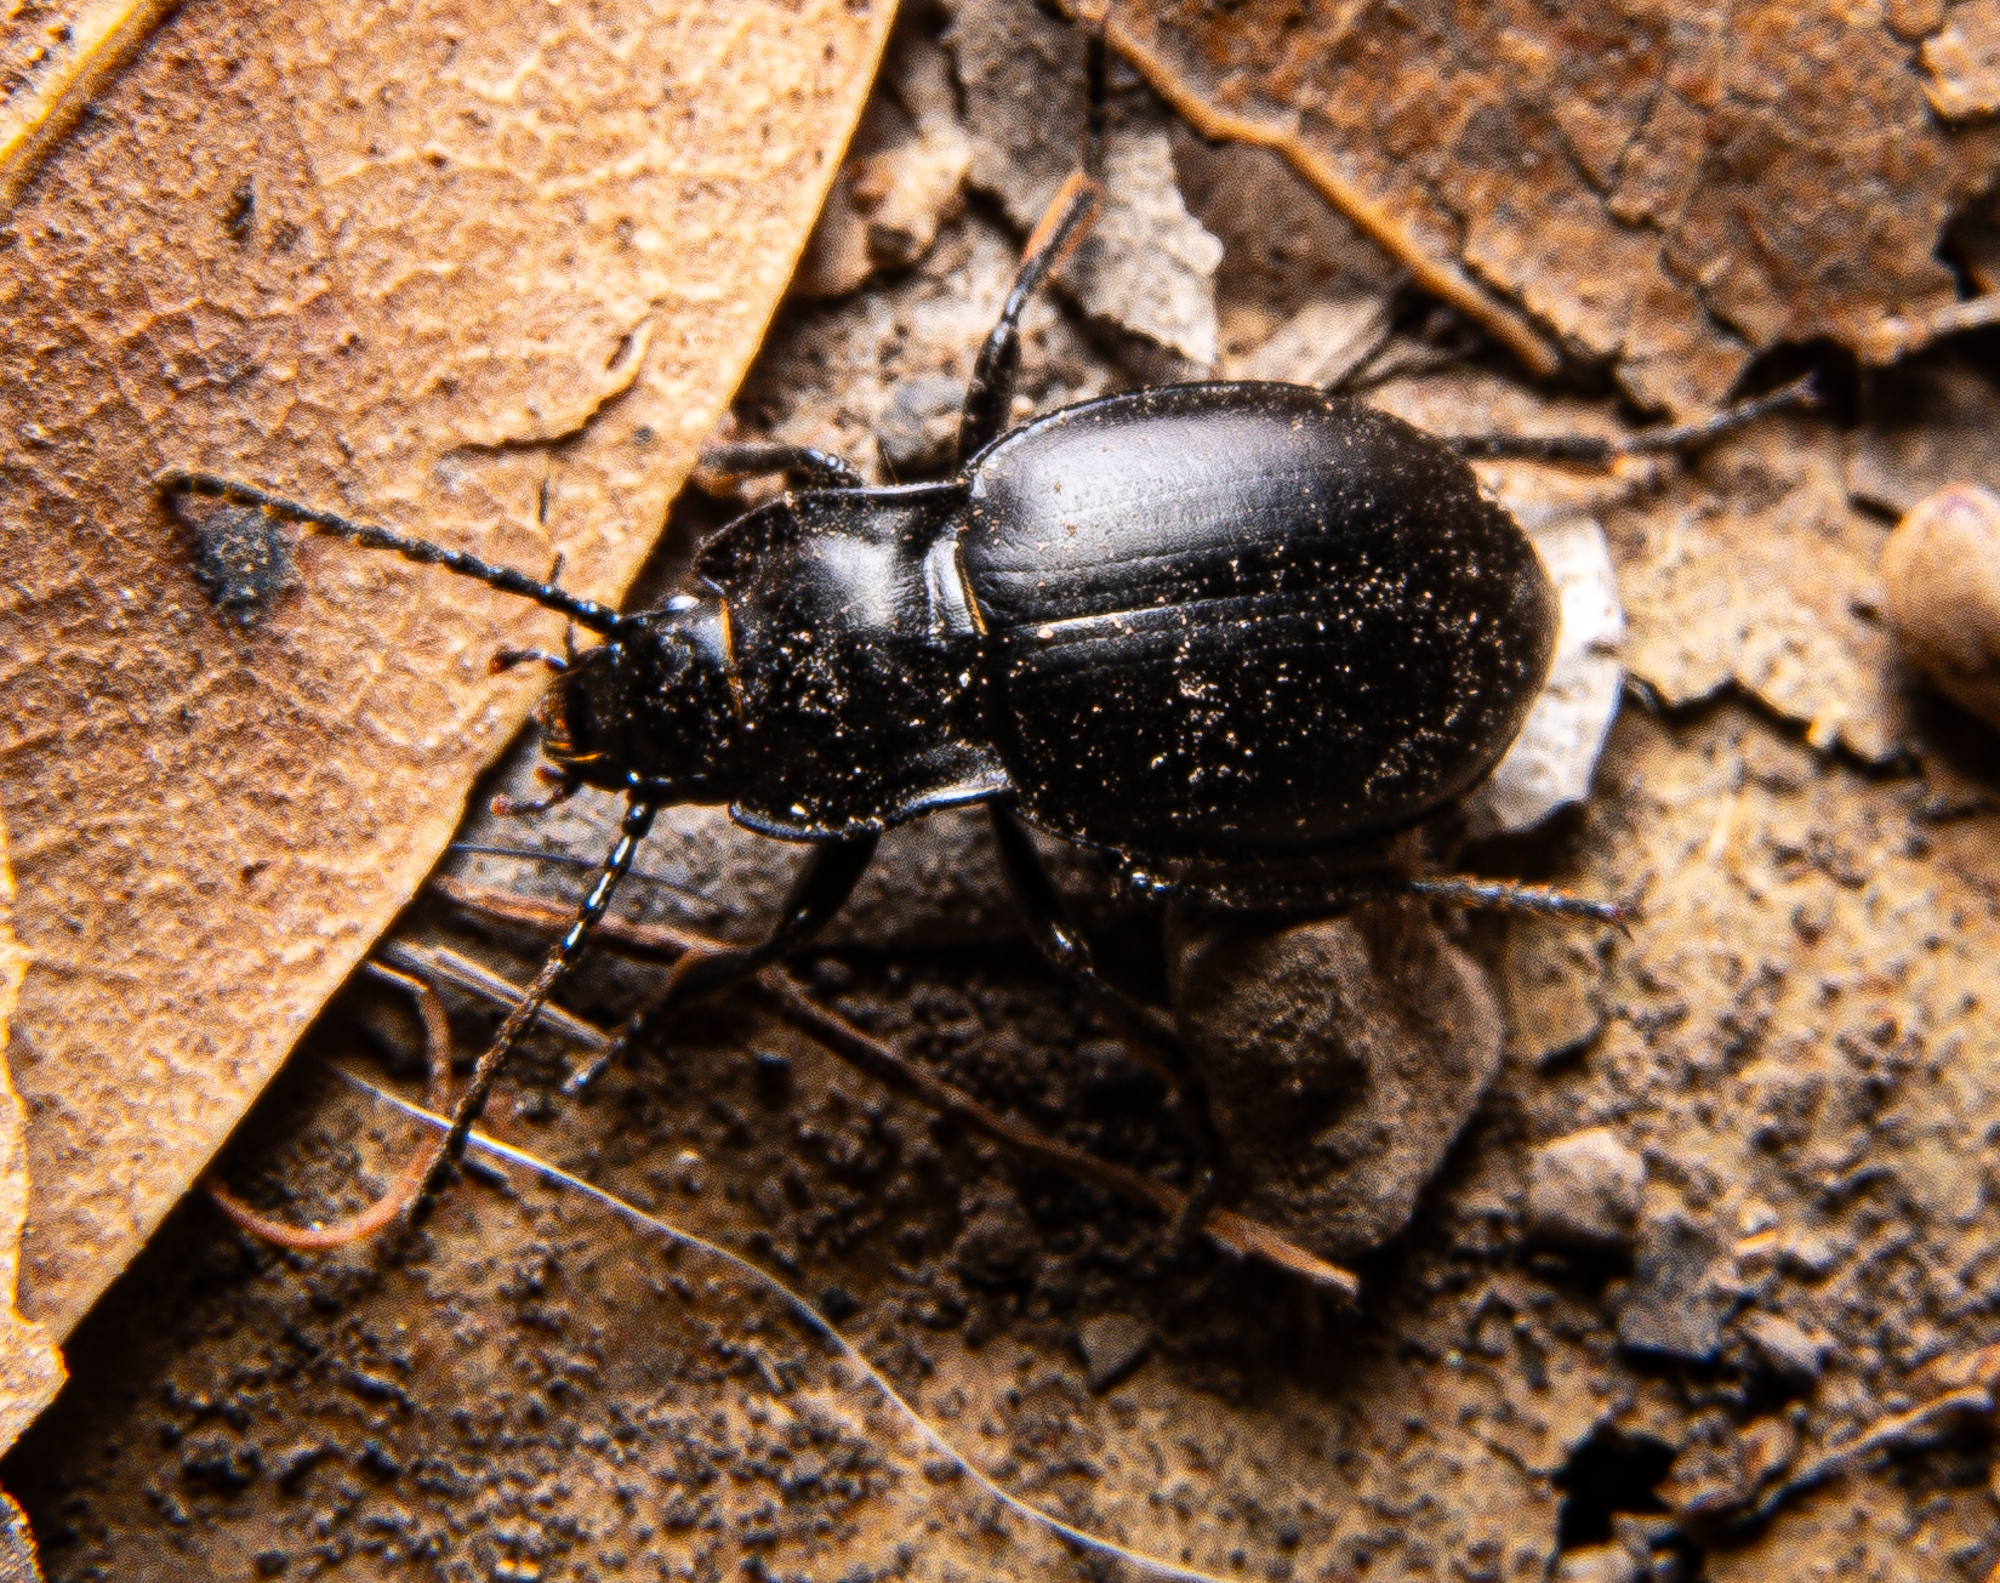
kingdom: Animalia
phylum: Arthropoda
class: Insecta
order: Coleoptera
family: Carabidae
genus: Metrius
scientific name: Metrius contractus
